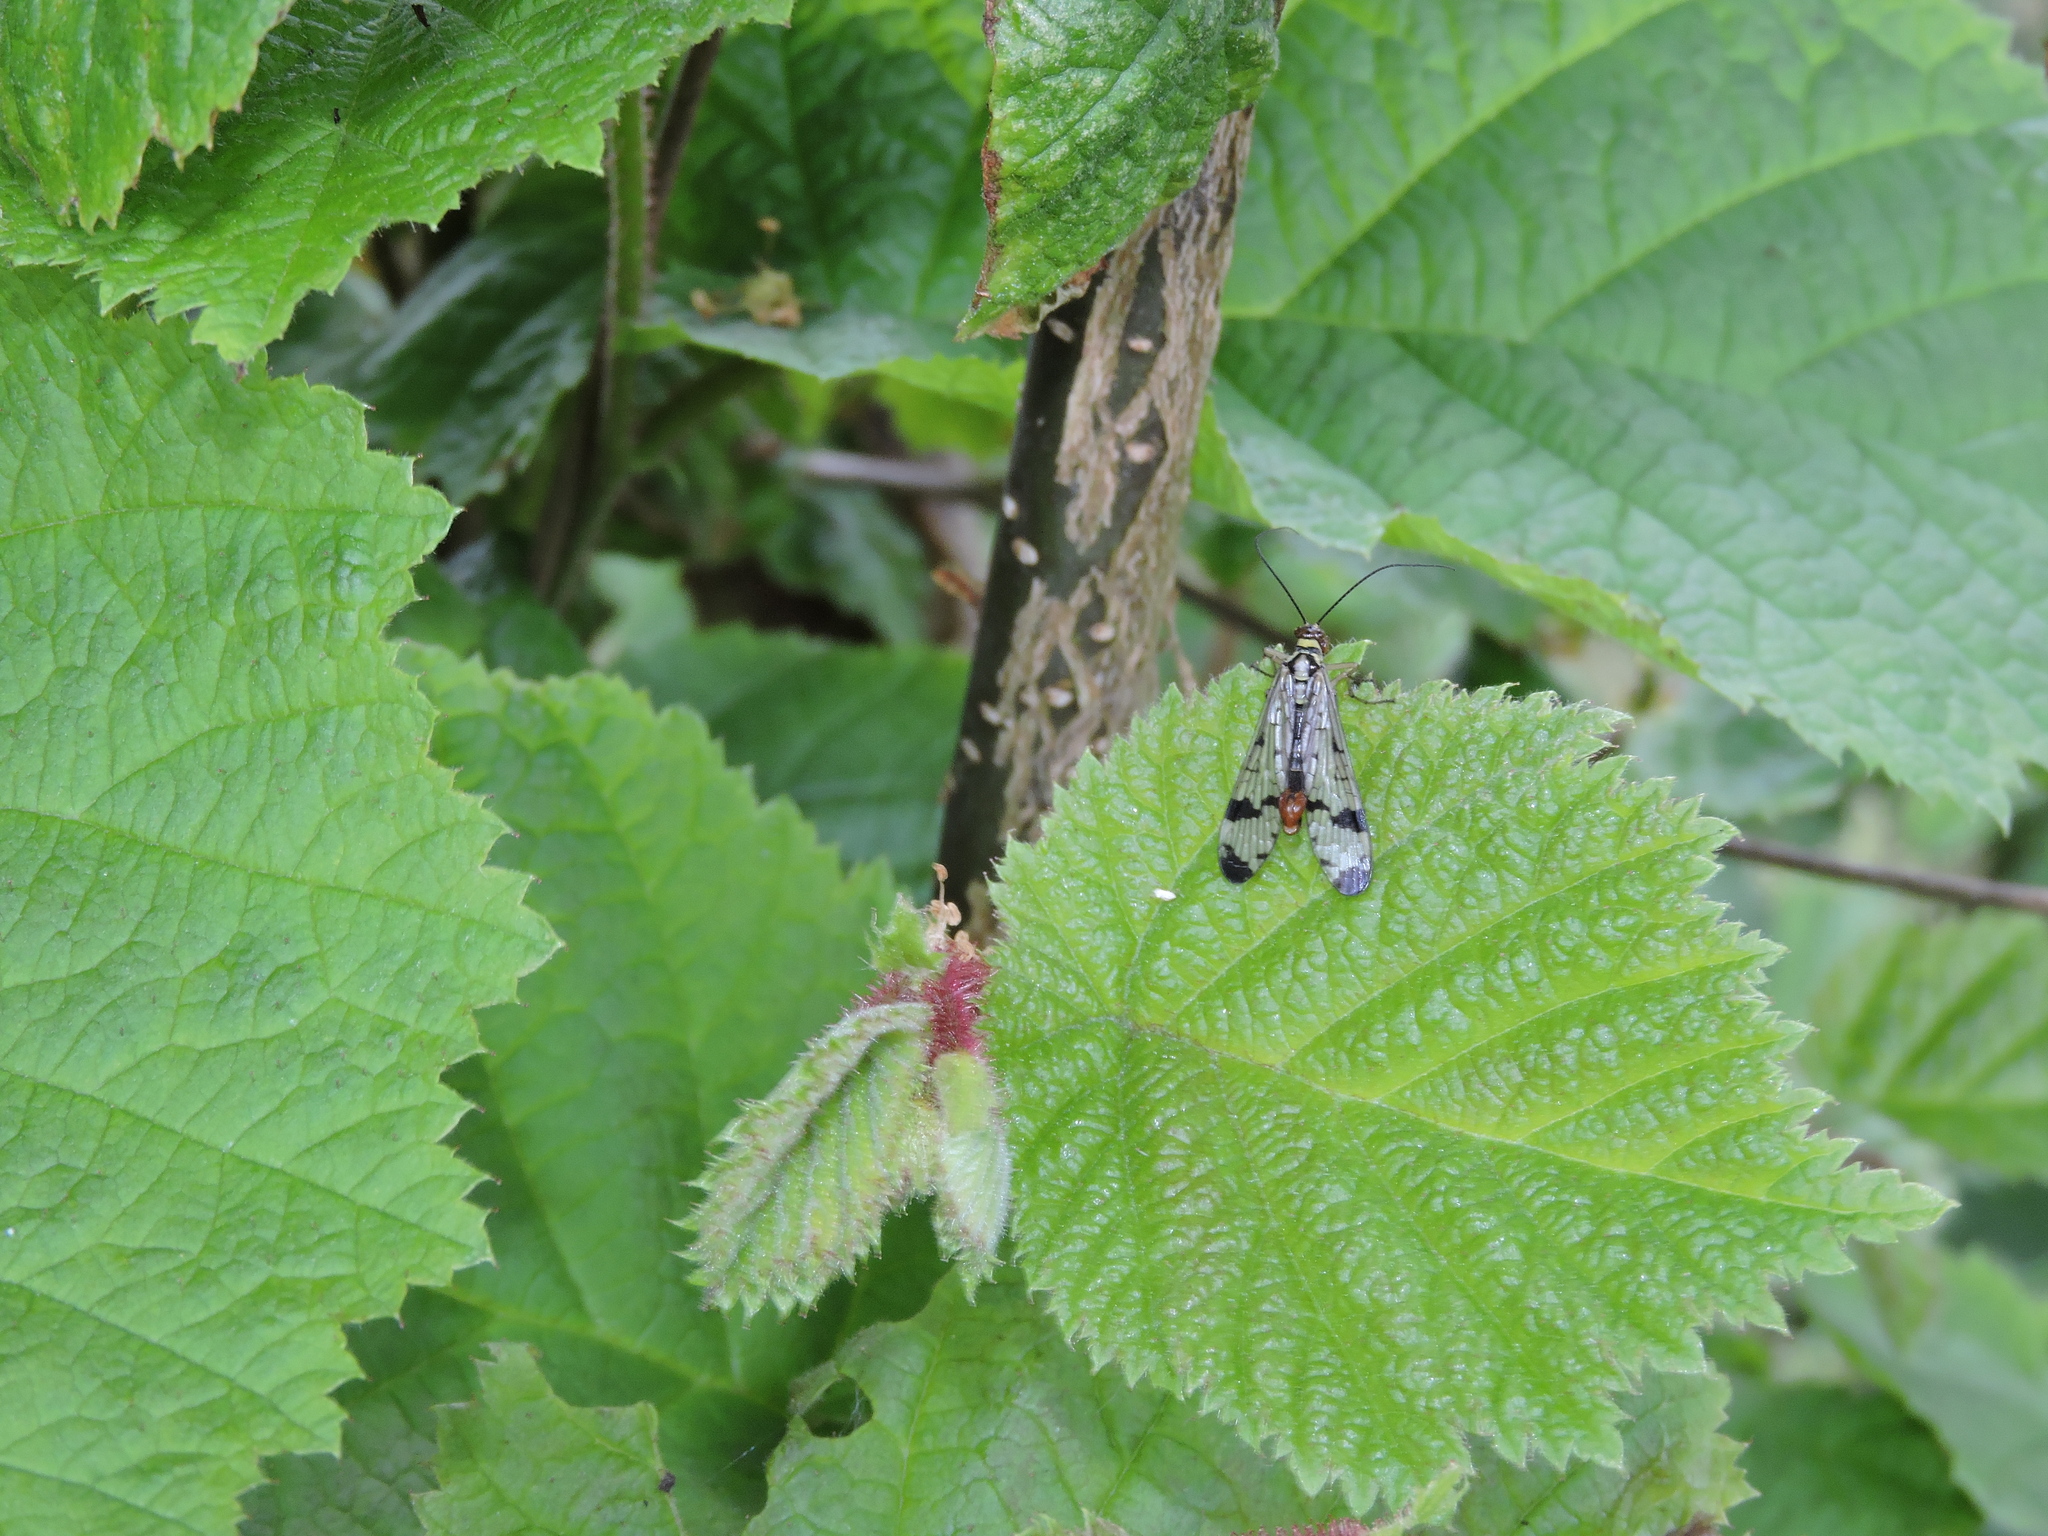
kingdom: Animalia
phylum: Arthropoda
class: Insecta
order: Mecoptera
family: Panorpidae
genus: Panorpa
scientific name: Panorpa communis
